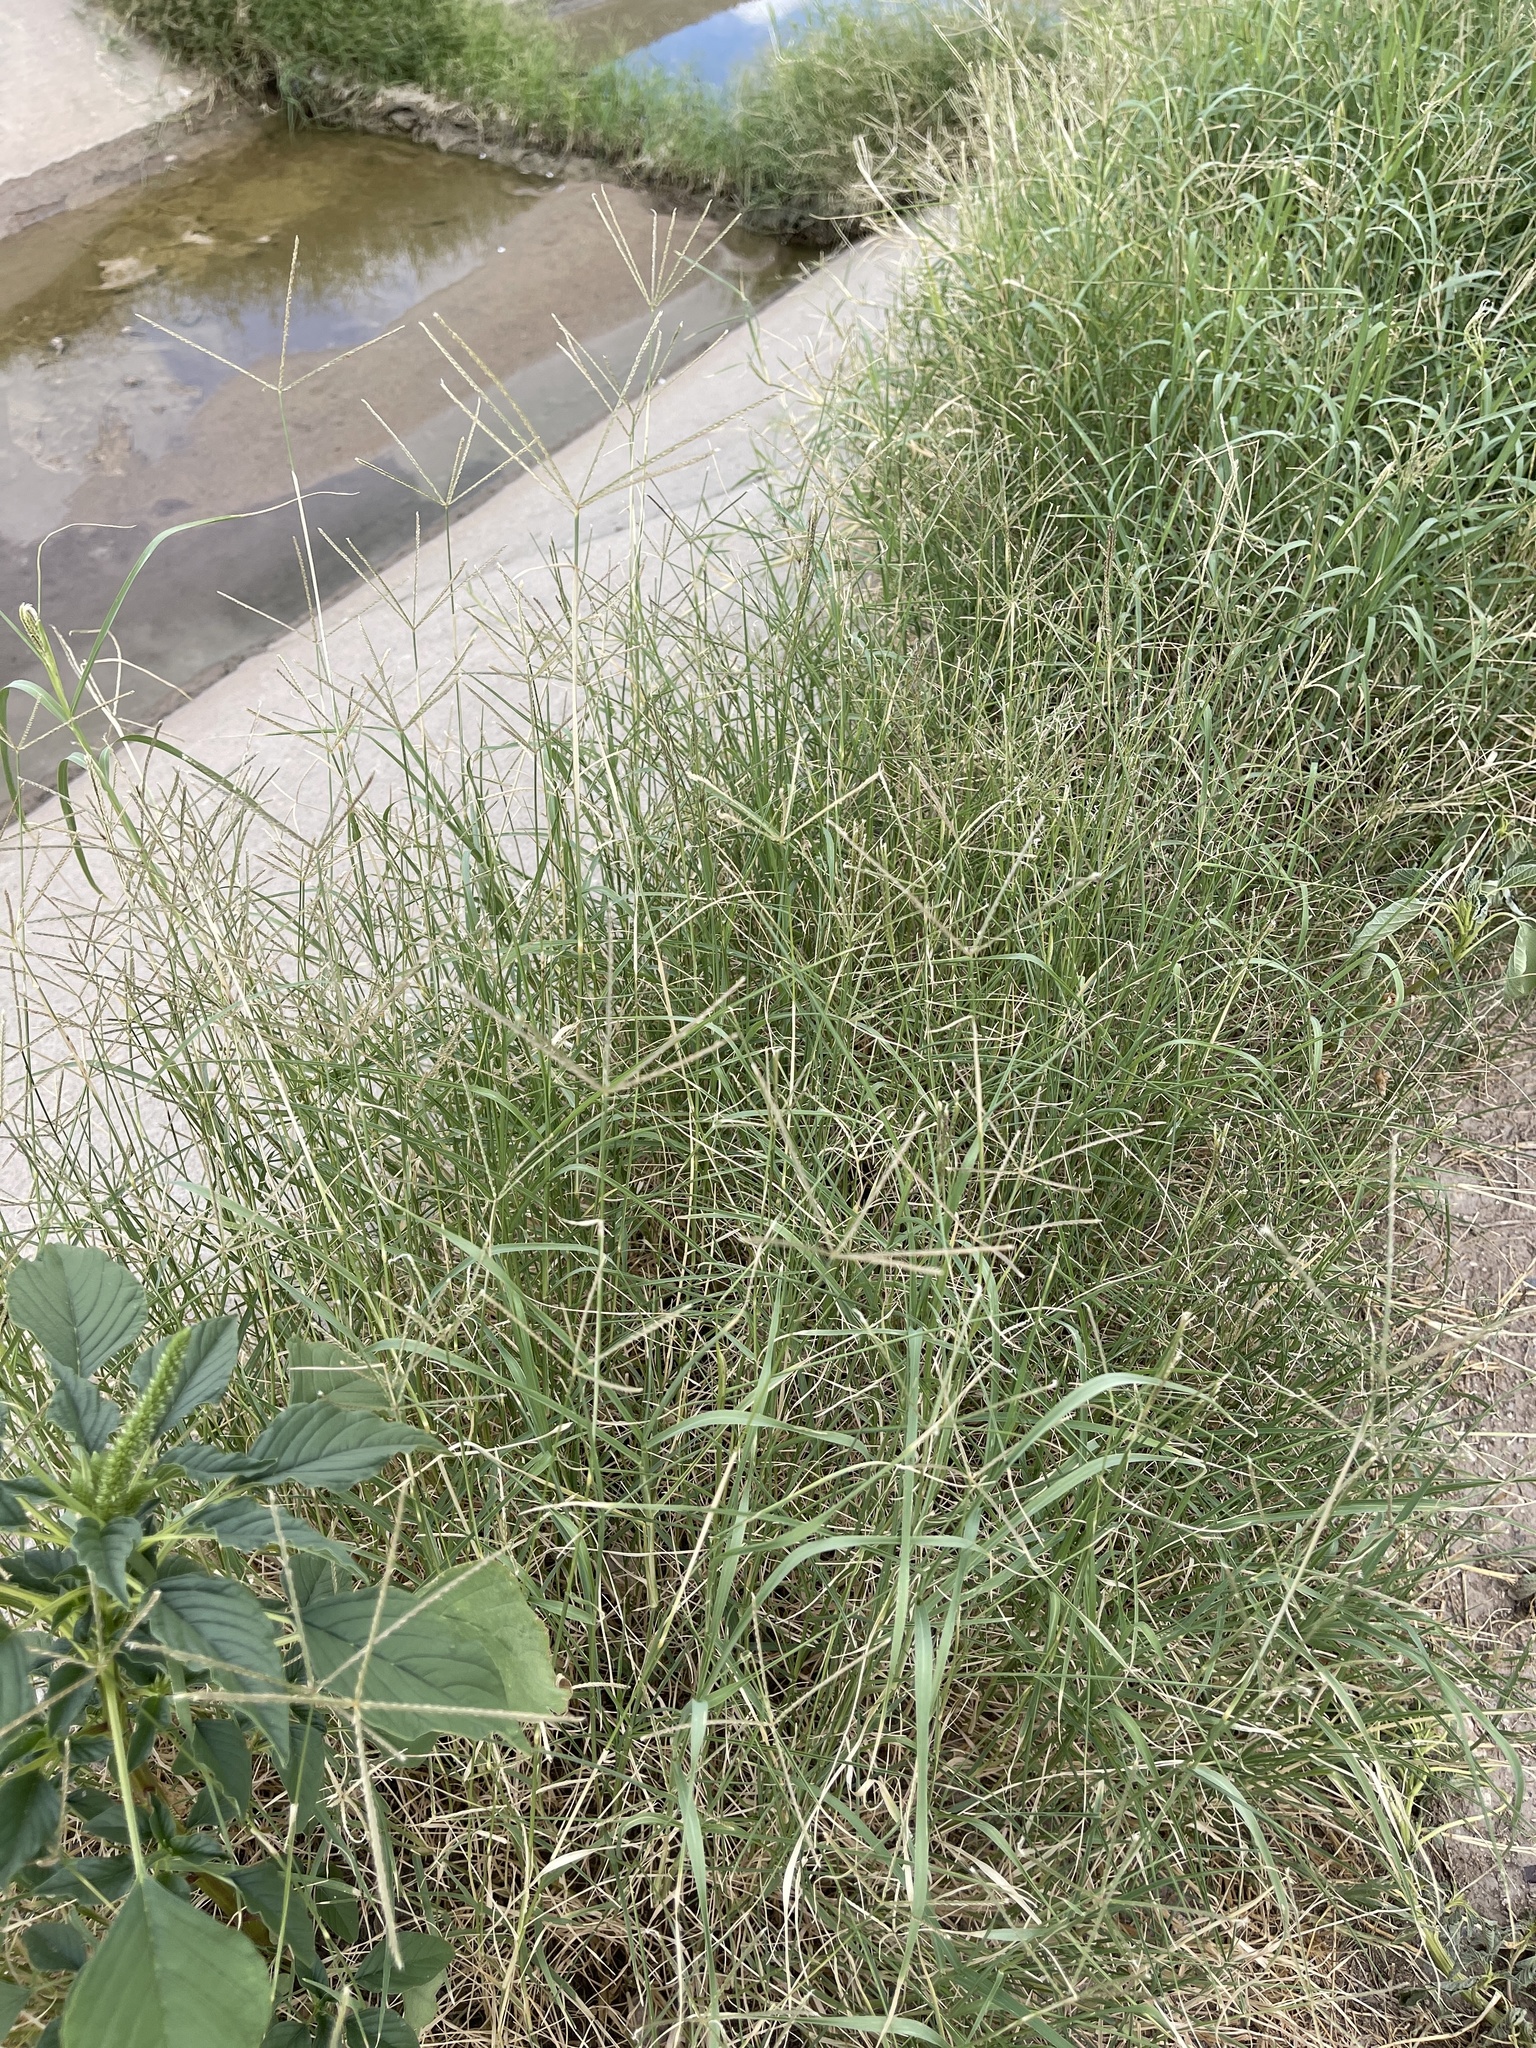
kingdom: Plantae
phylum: Tracheophyta
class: Liliopsida
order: Poales
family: Poaceae
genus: Cynodon
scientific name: Cynodon dactylon
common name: Bermuda grass
